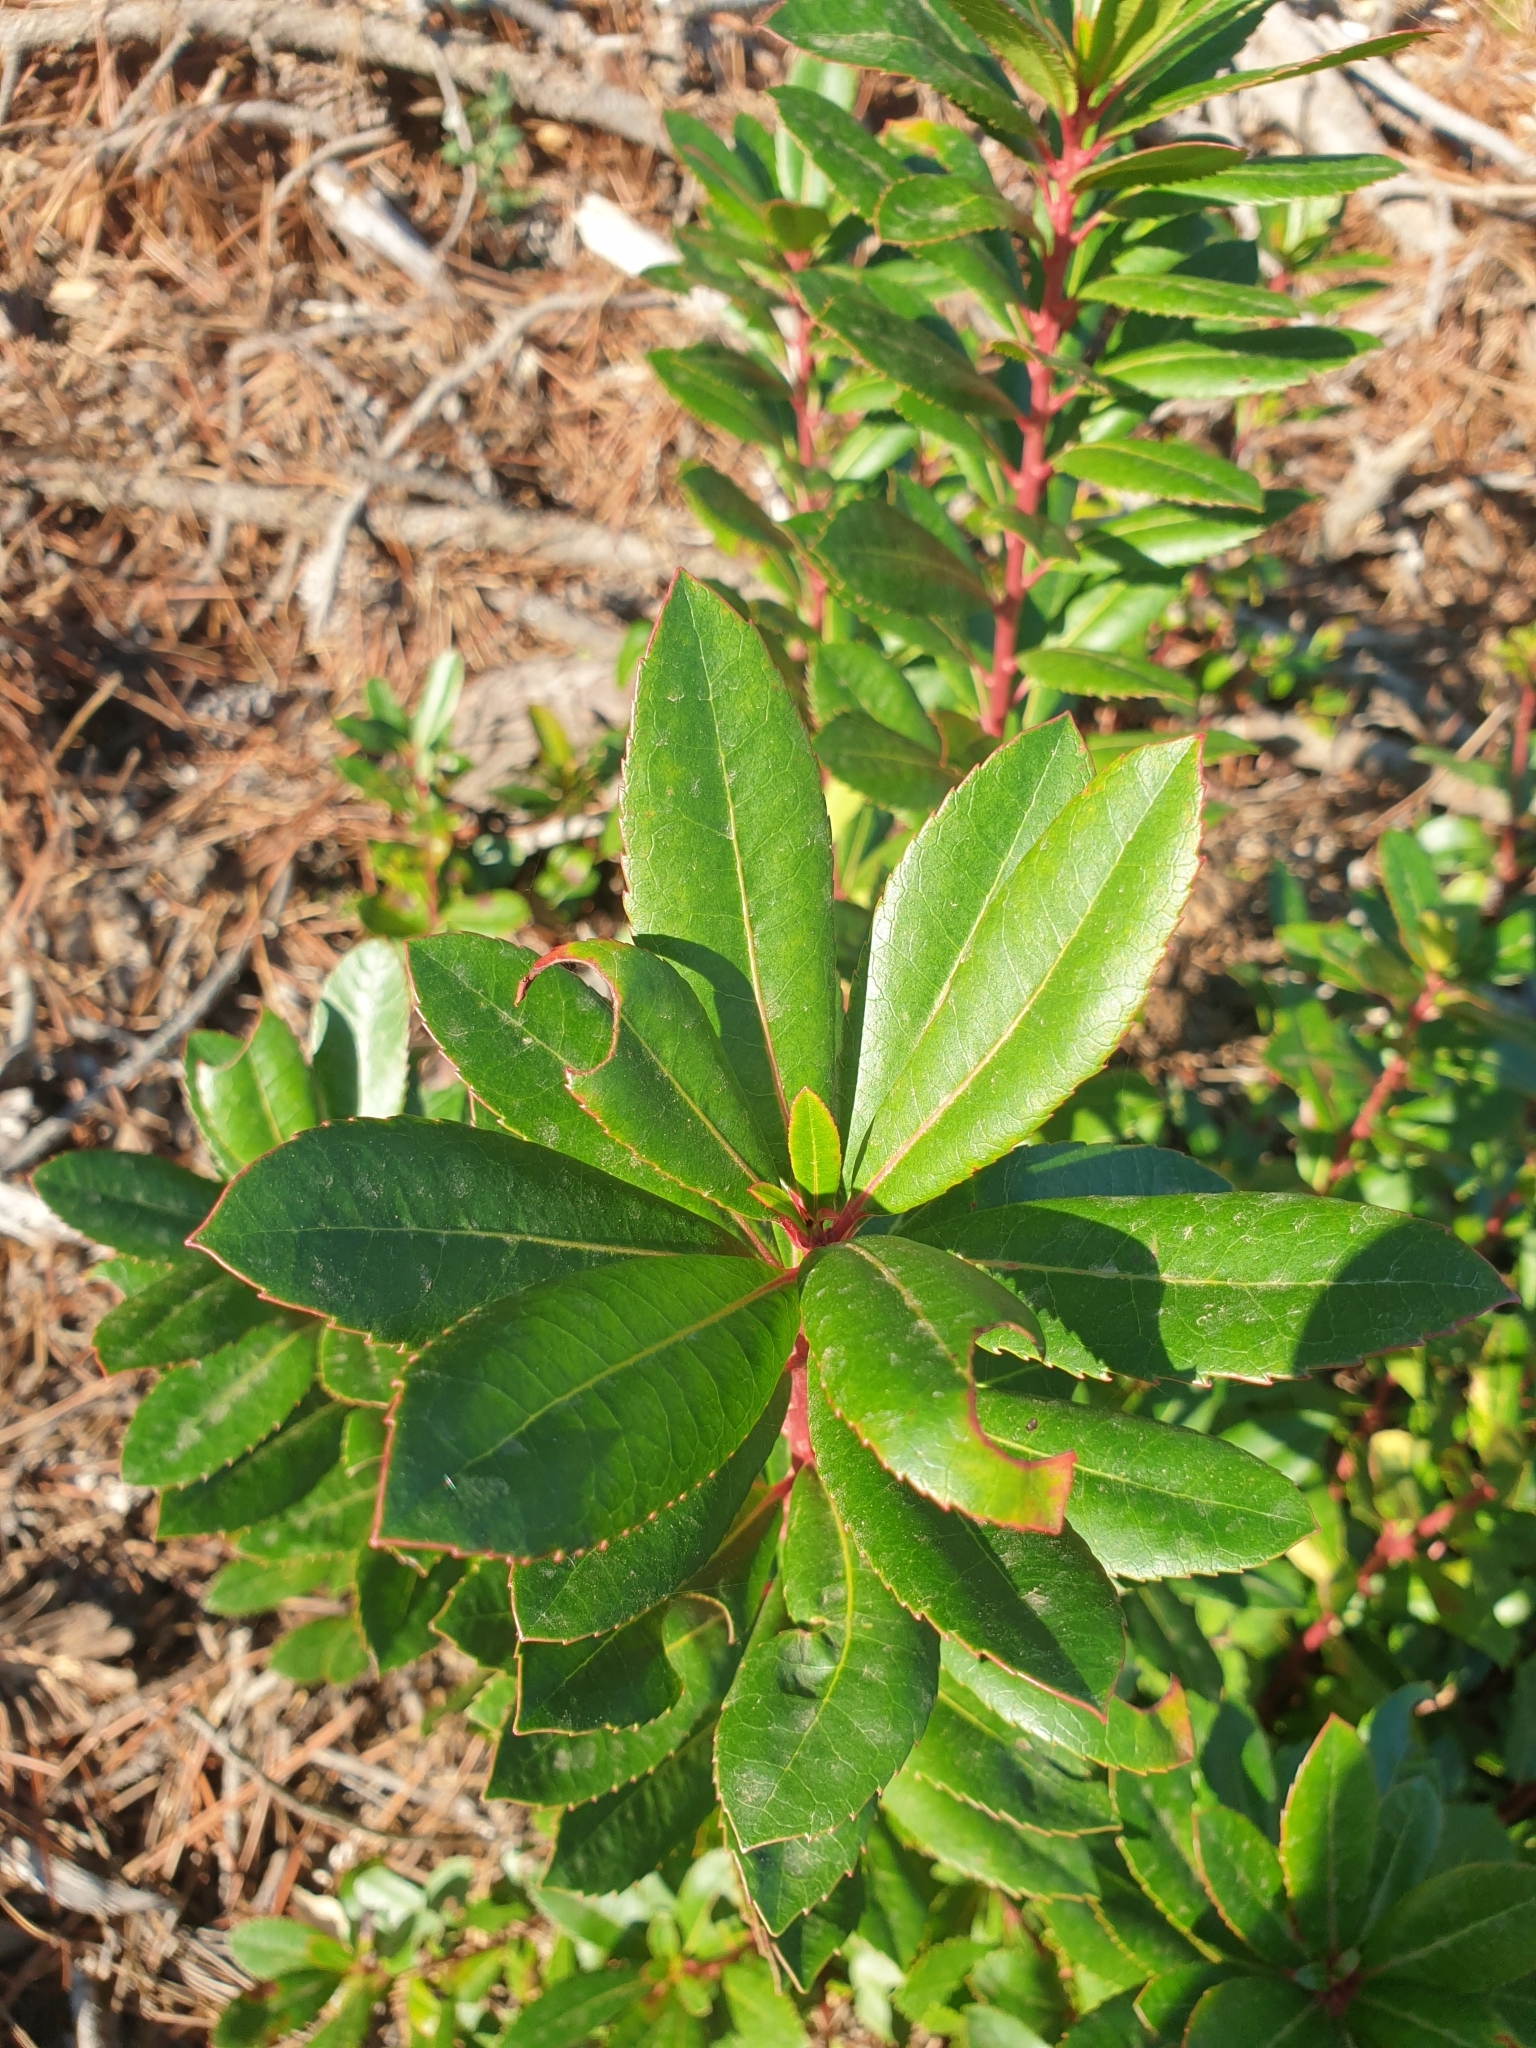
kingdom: Plantae
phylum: Tracheophyta
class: Magnoliopsida
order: Ericales
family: Ericaceae
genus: Arbutus
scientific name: Arbutus unedo
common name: Strawberry-tree
